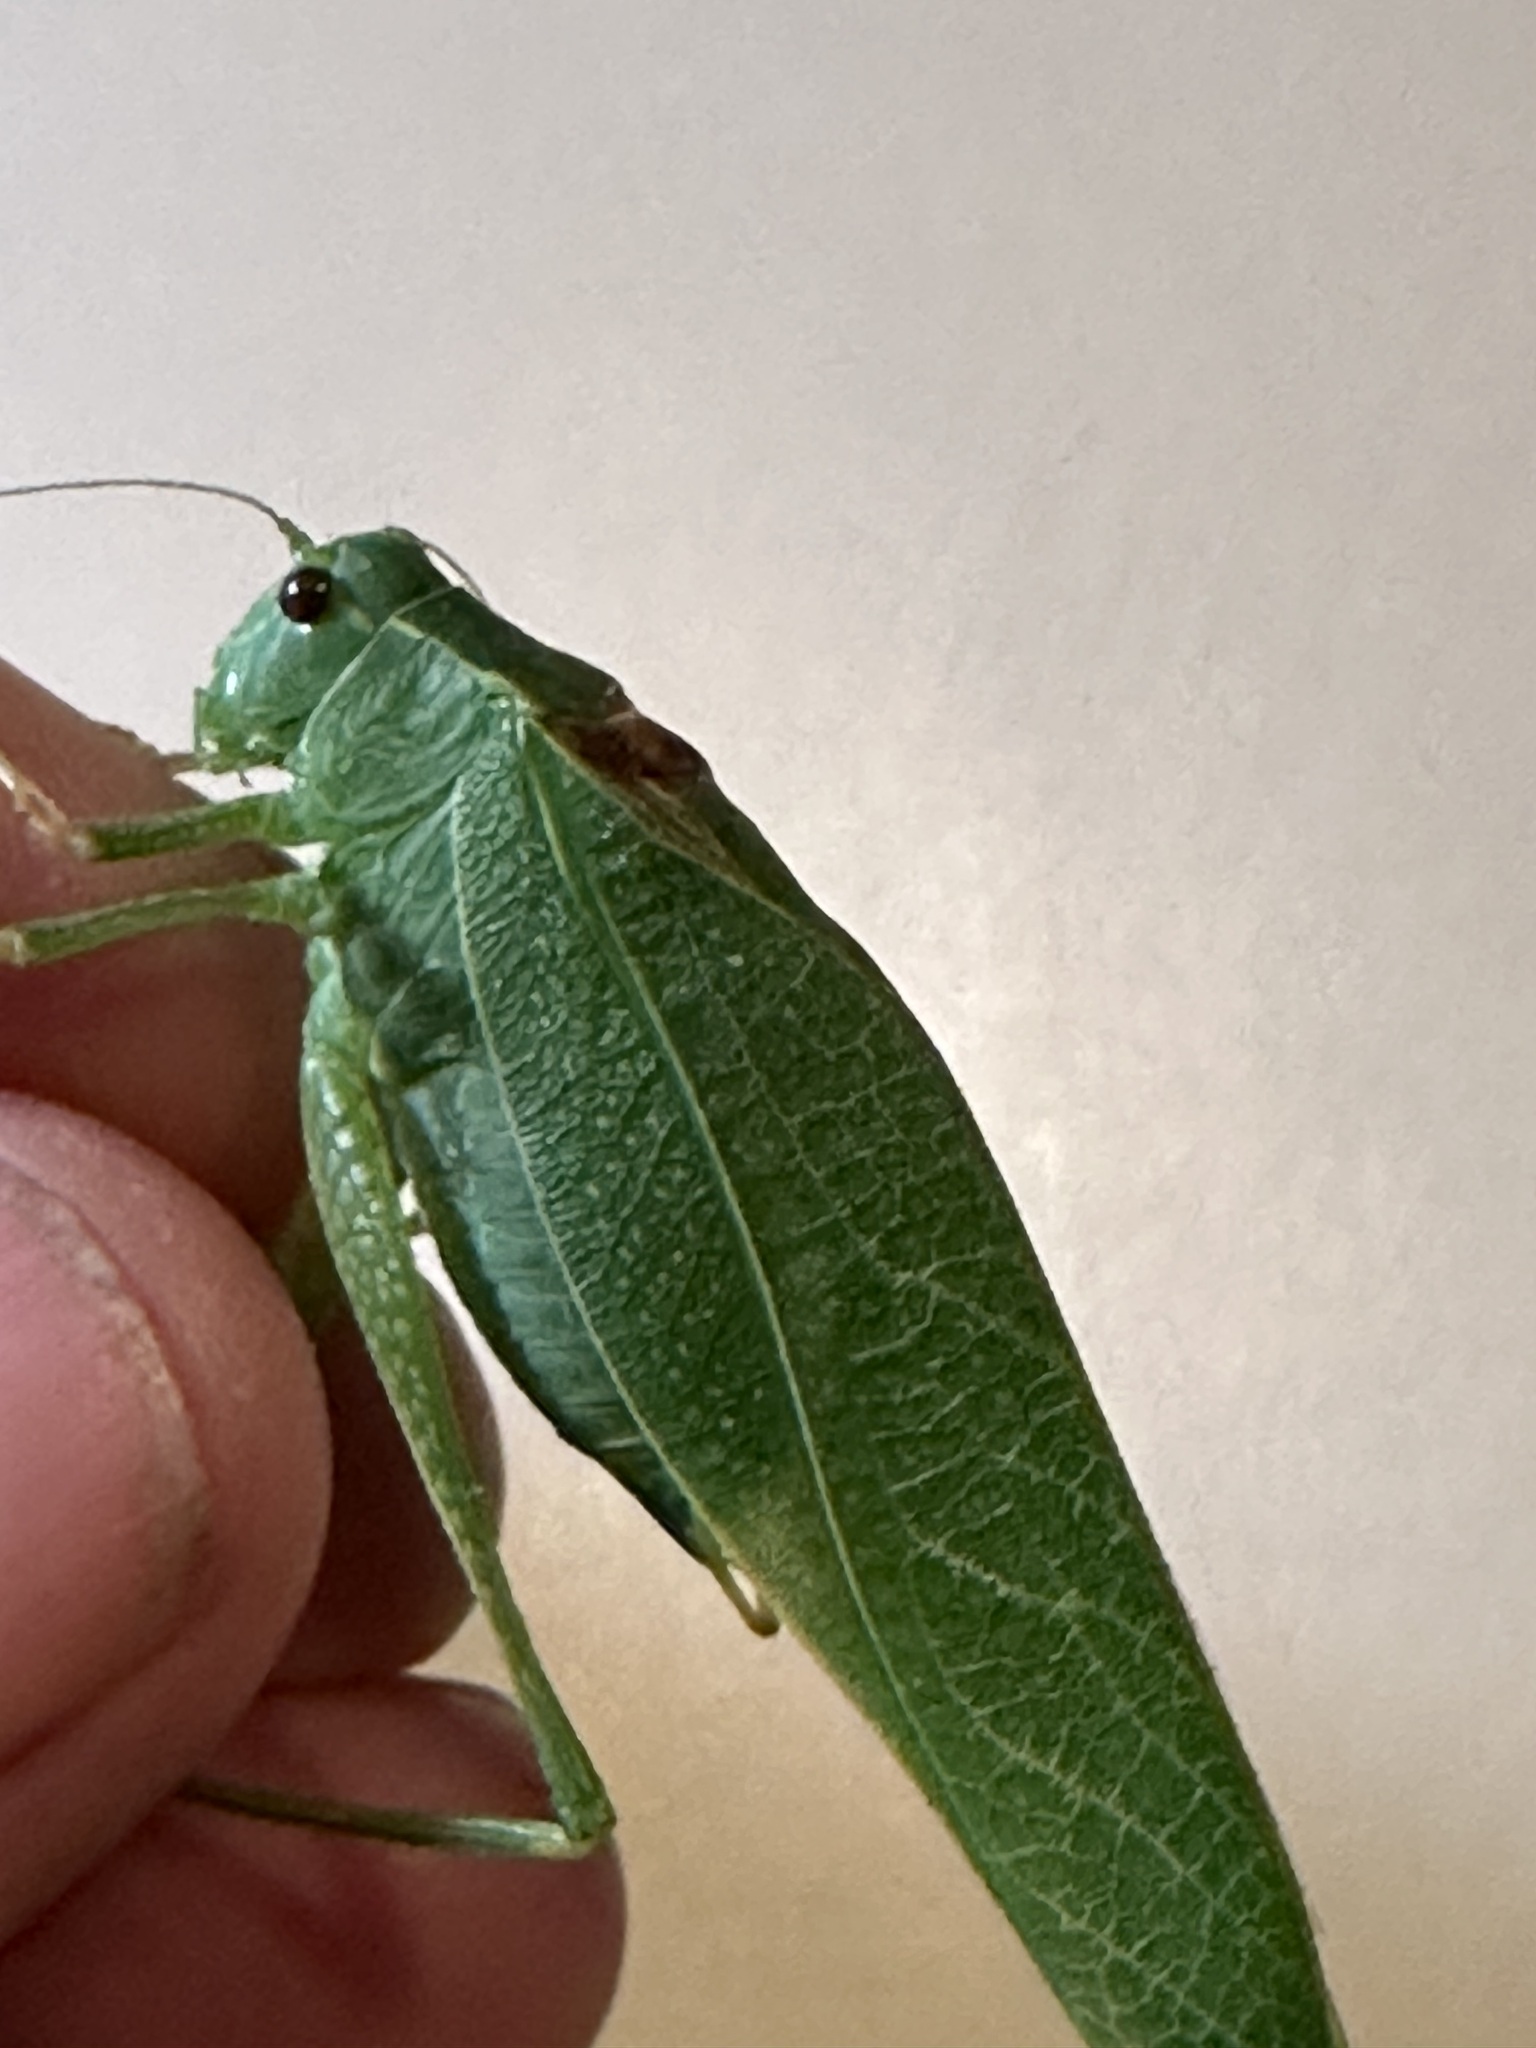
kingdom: Animalia
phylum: Arthropoda
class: Insecta
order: Orthoptera
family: Tettigoniidae
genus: Microcentrum
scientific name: Microcentrum californicum
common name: California angle-wing
